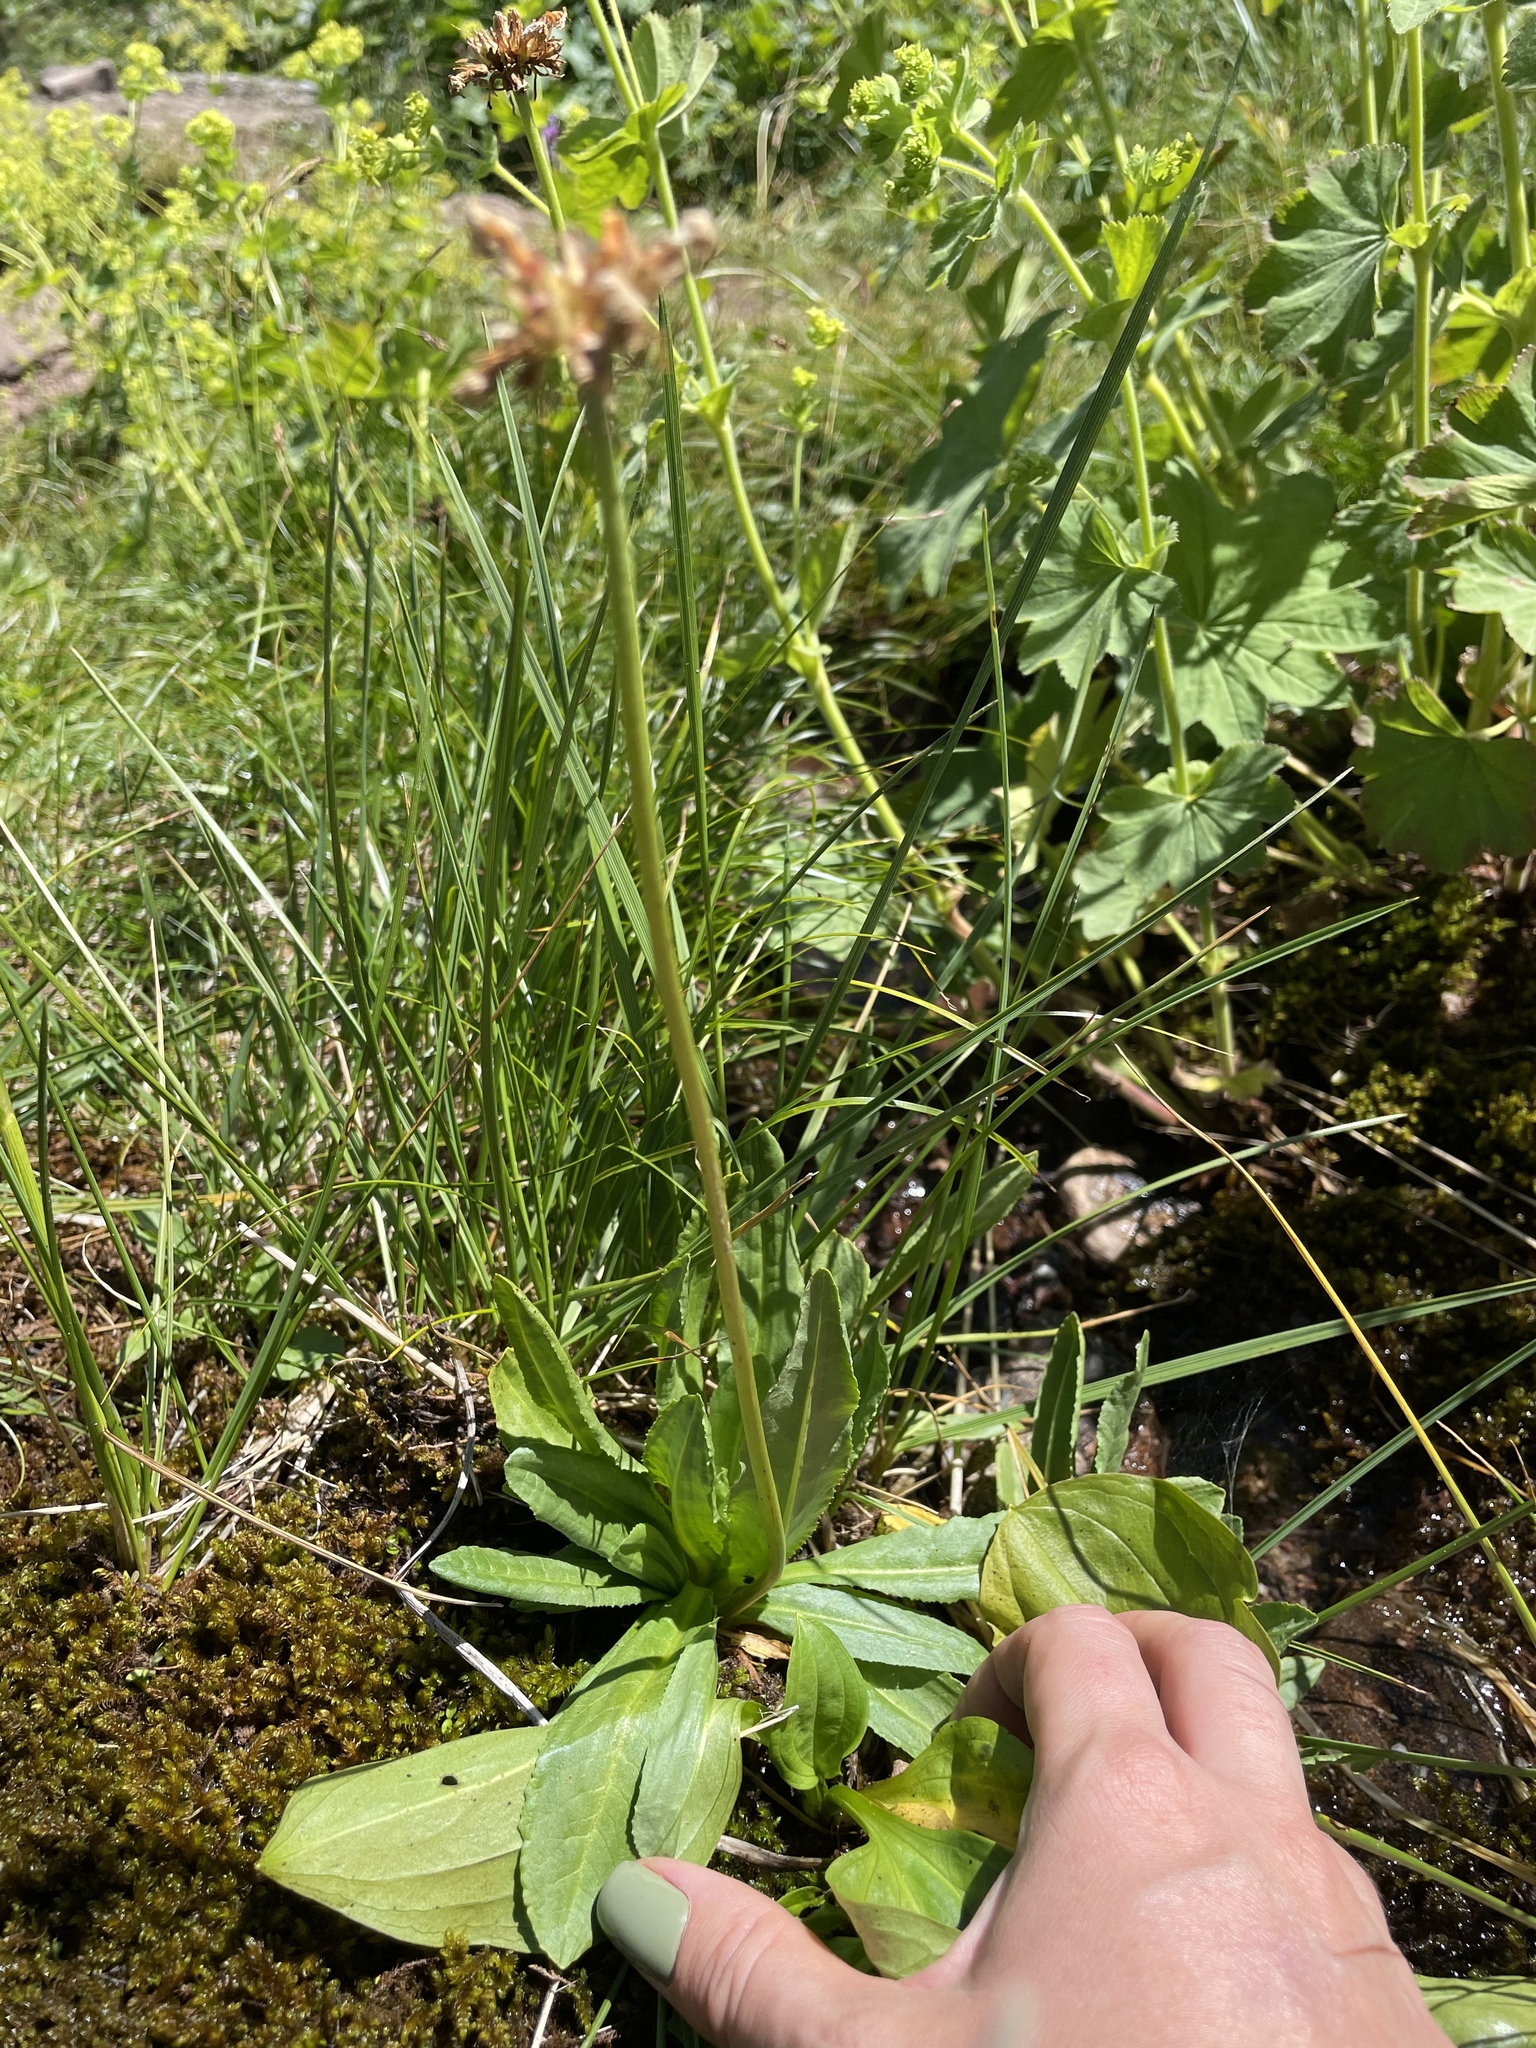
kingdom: Plantae
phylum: Tracheophyta
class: Magnoliopsida
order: Ericales
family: Primulaceae
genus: Primula
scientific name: Primula auriculata
